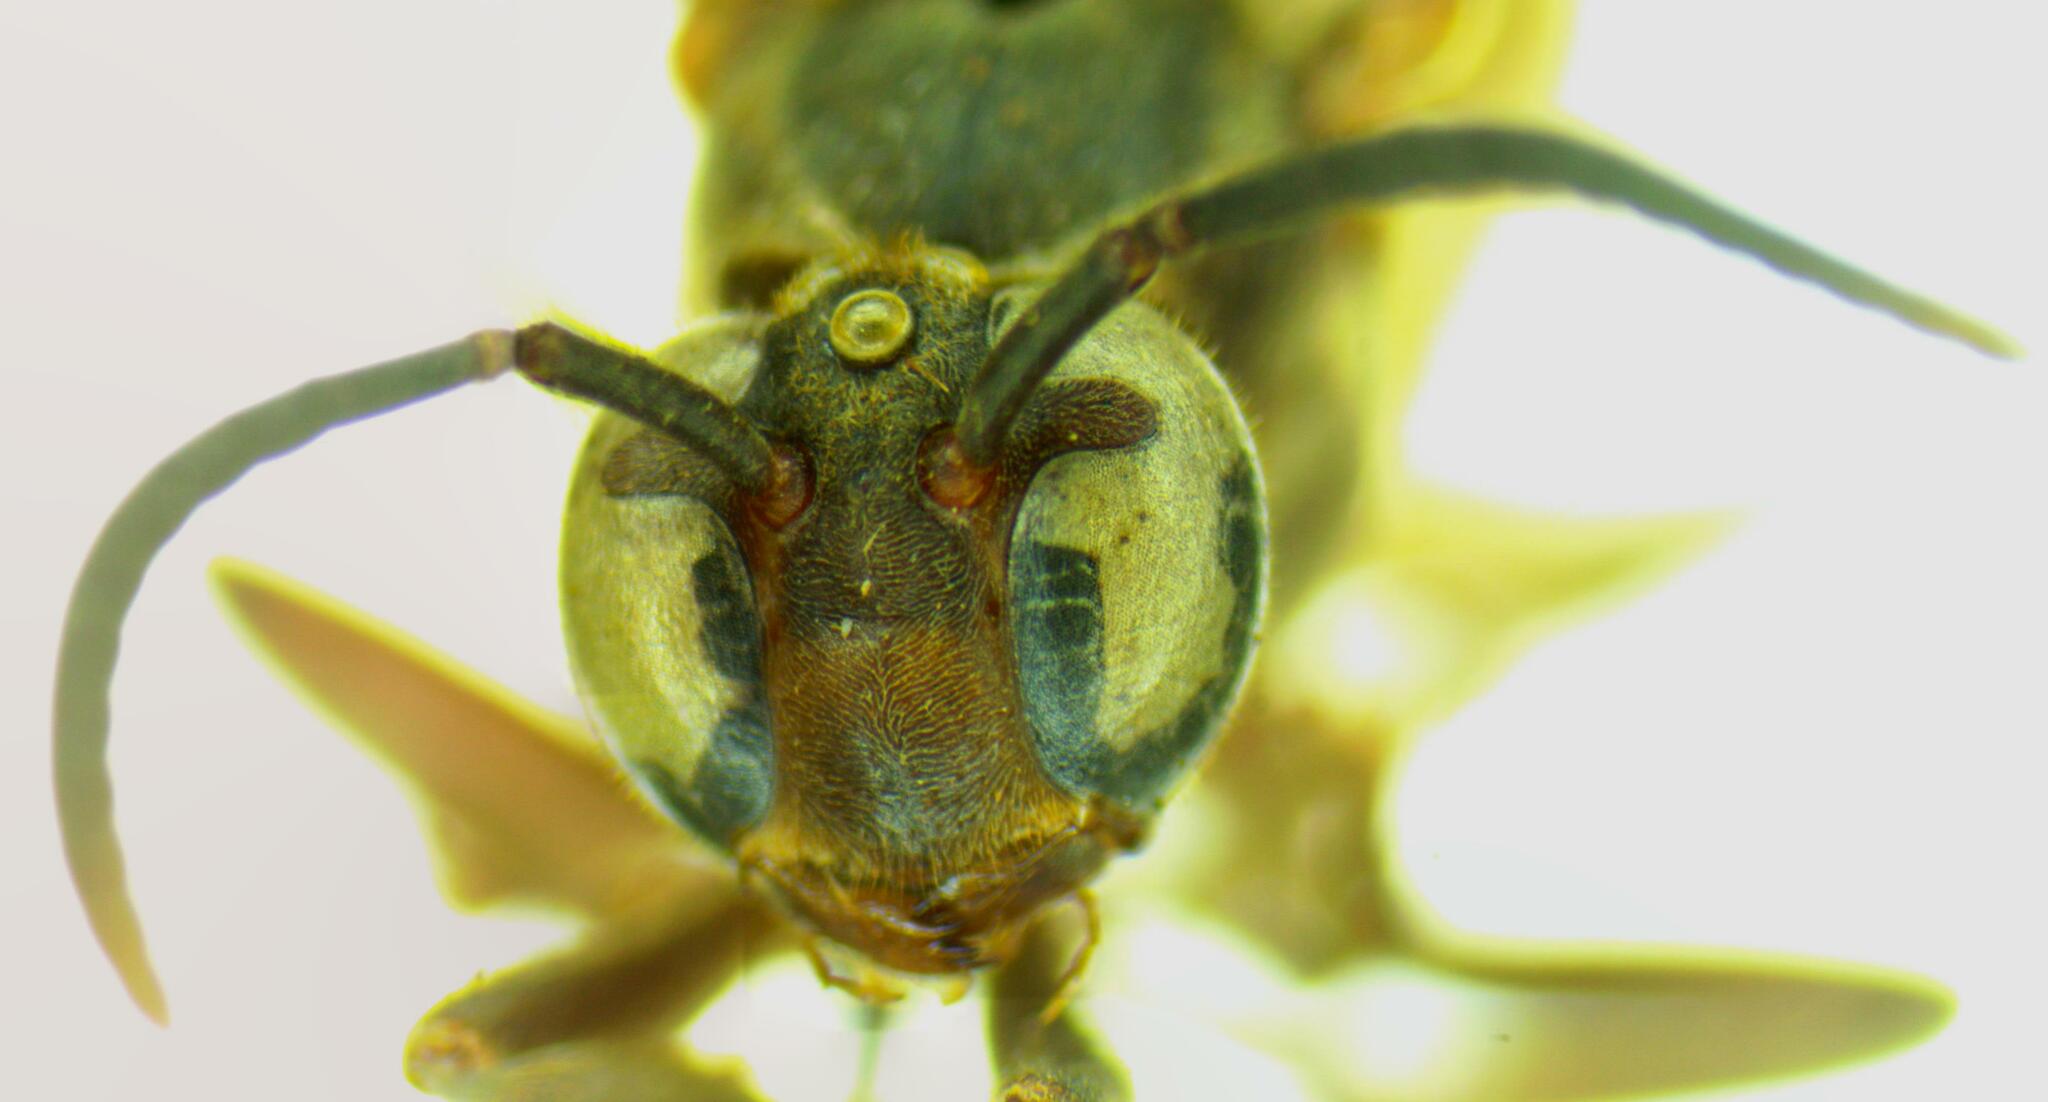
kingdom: Animalia
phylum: Arthropoda
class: Insecta
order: Hymenoptera
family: Vespidae
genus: Apoica
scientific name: Apoica thoracica
